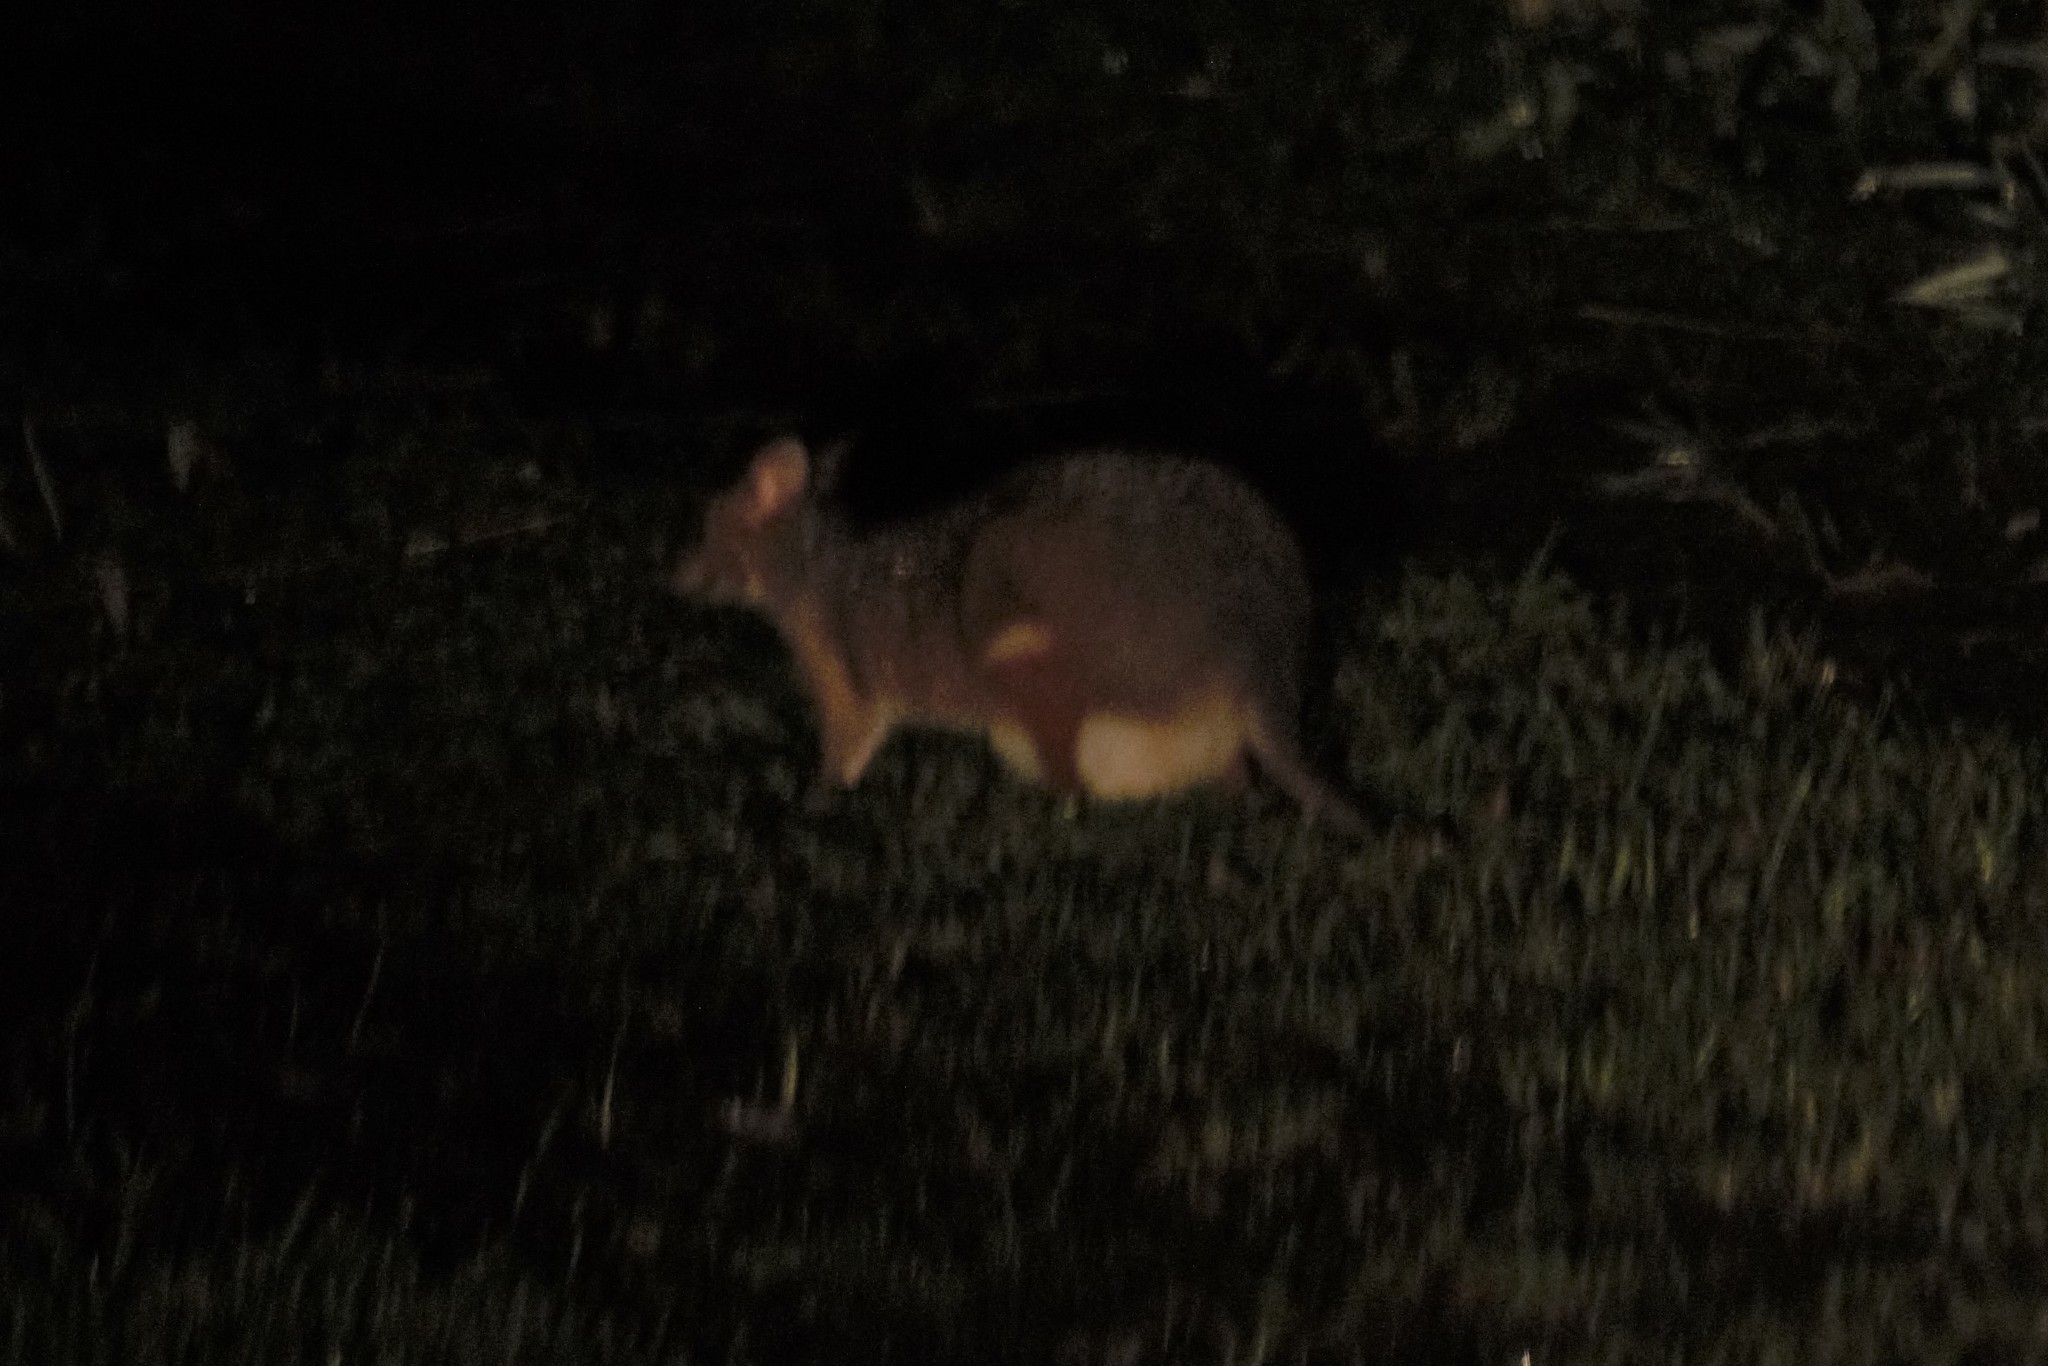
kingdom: Animalia
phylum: Chordata
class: Mammalia
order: Diprotodontia
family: Macropodidae
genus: Thylogale
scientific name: Thylogale stigmatica
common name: Red-legged pademelon
